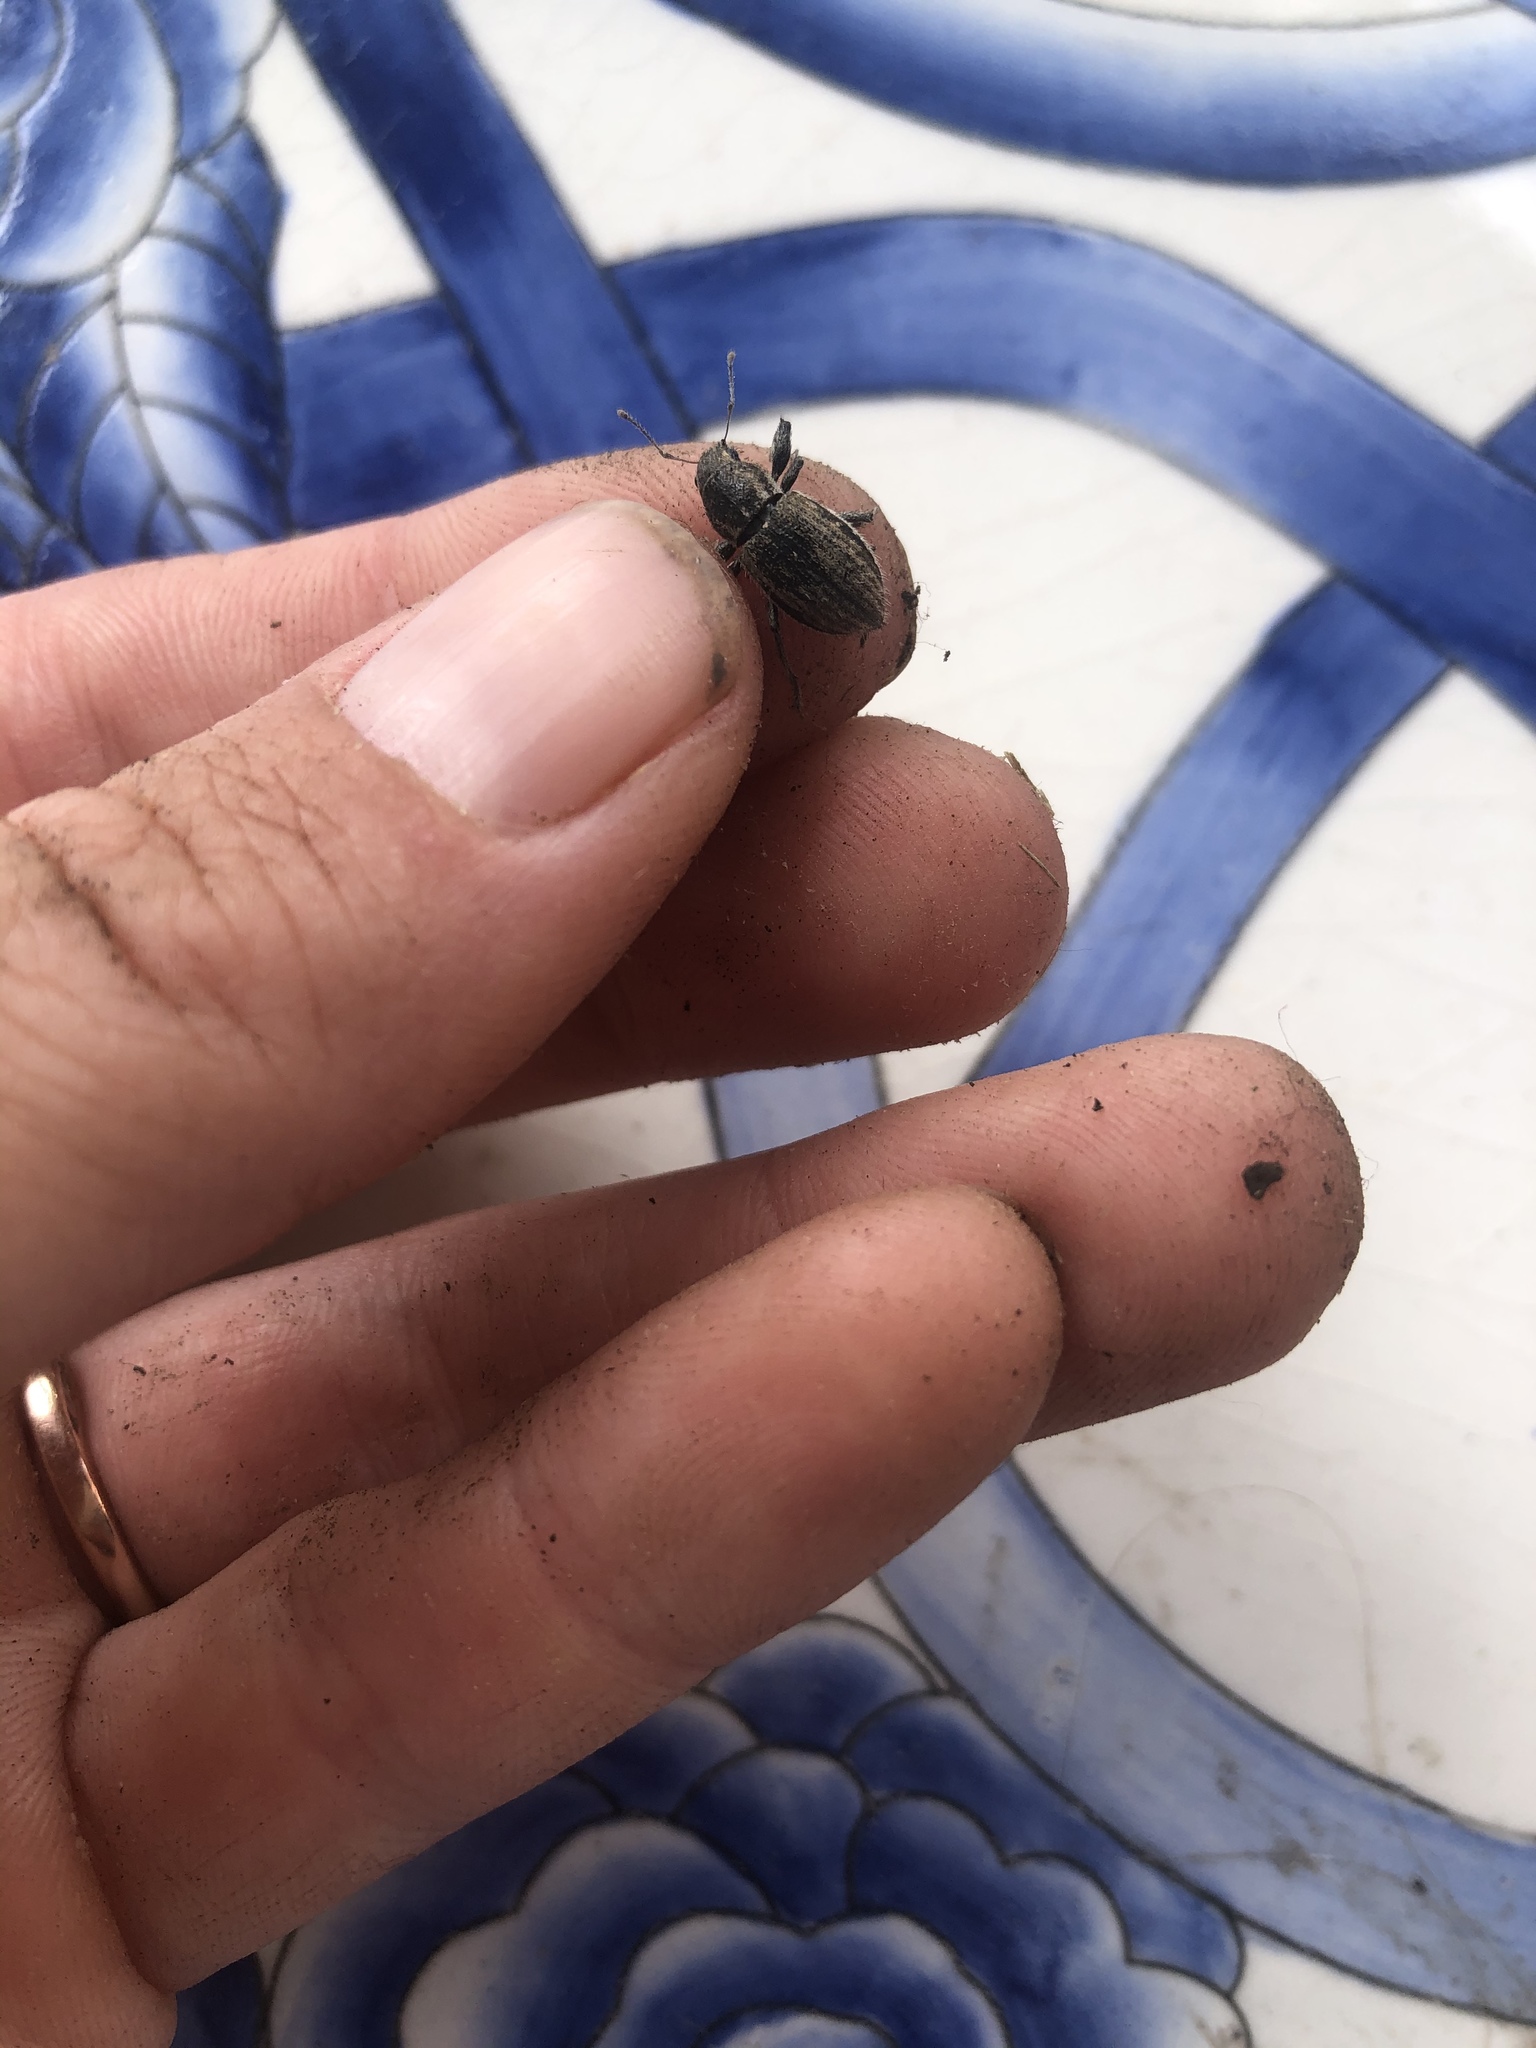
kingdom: Animalia
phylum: Arthropoda
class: Insecta
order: Coleoptera
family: Curculionidae
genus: Naupactus
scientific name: Naupactus leucoloma
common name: Whitefringed beetle
